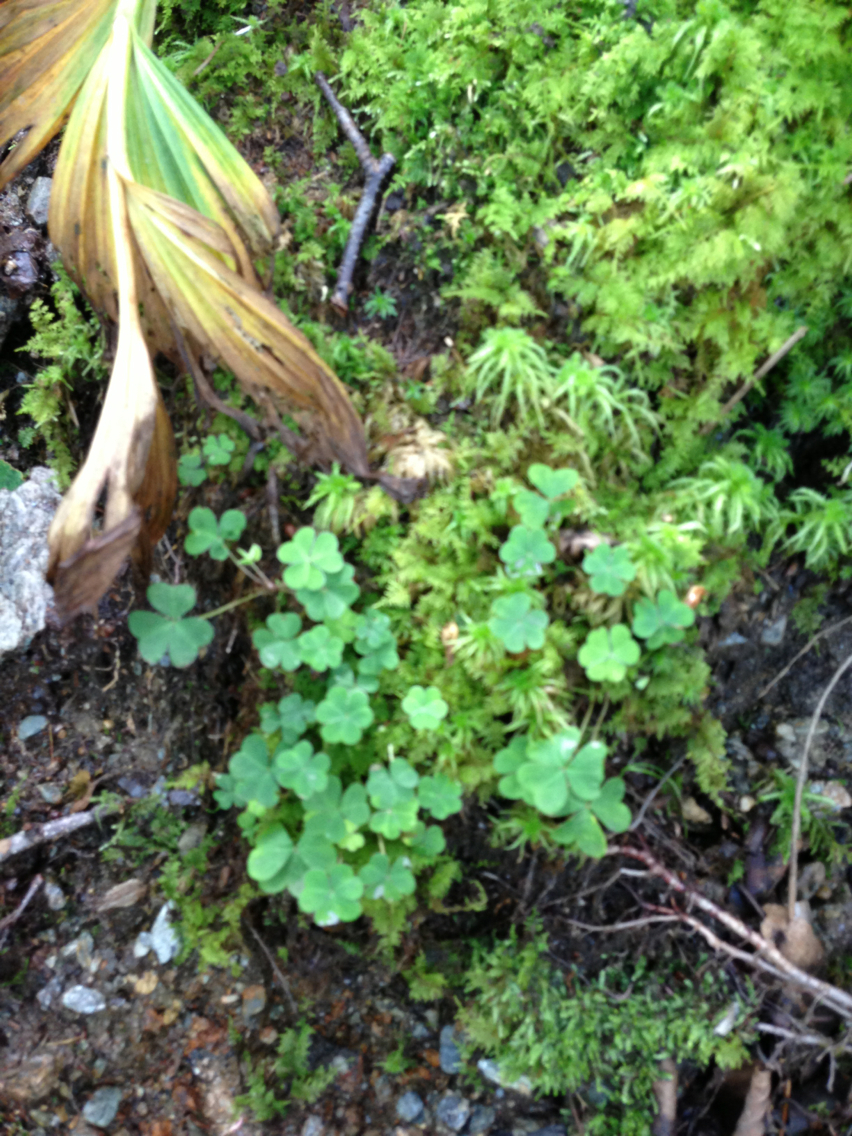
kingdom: Plantae
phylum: Tracheophyta
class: Magnoliopsida
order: Oxalidales
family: Oxalidaceae
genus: Oxalis
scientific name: Oxalis montana
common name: American wood-sorrel
